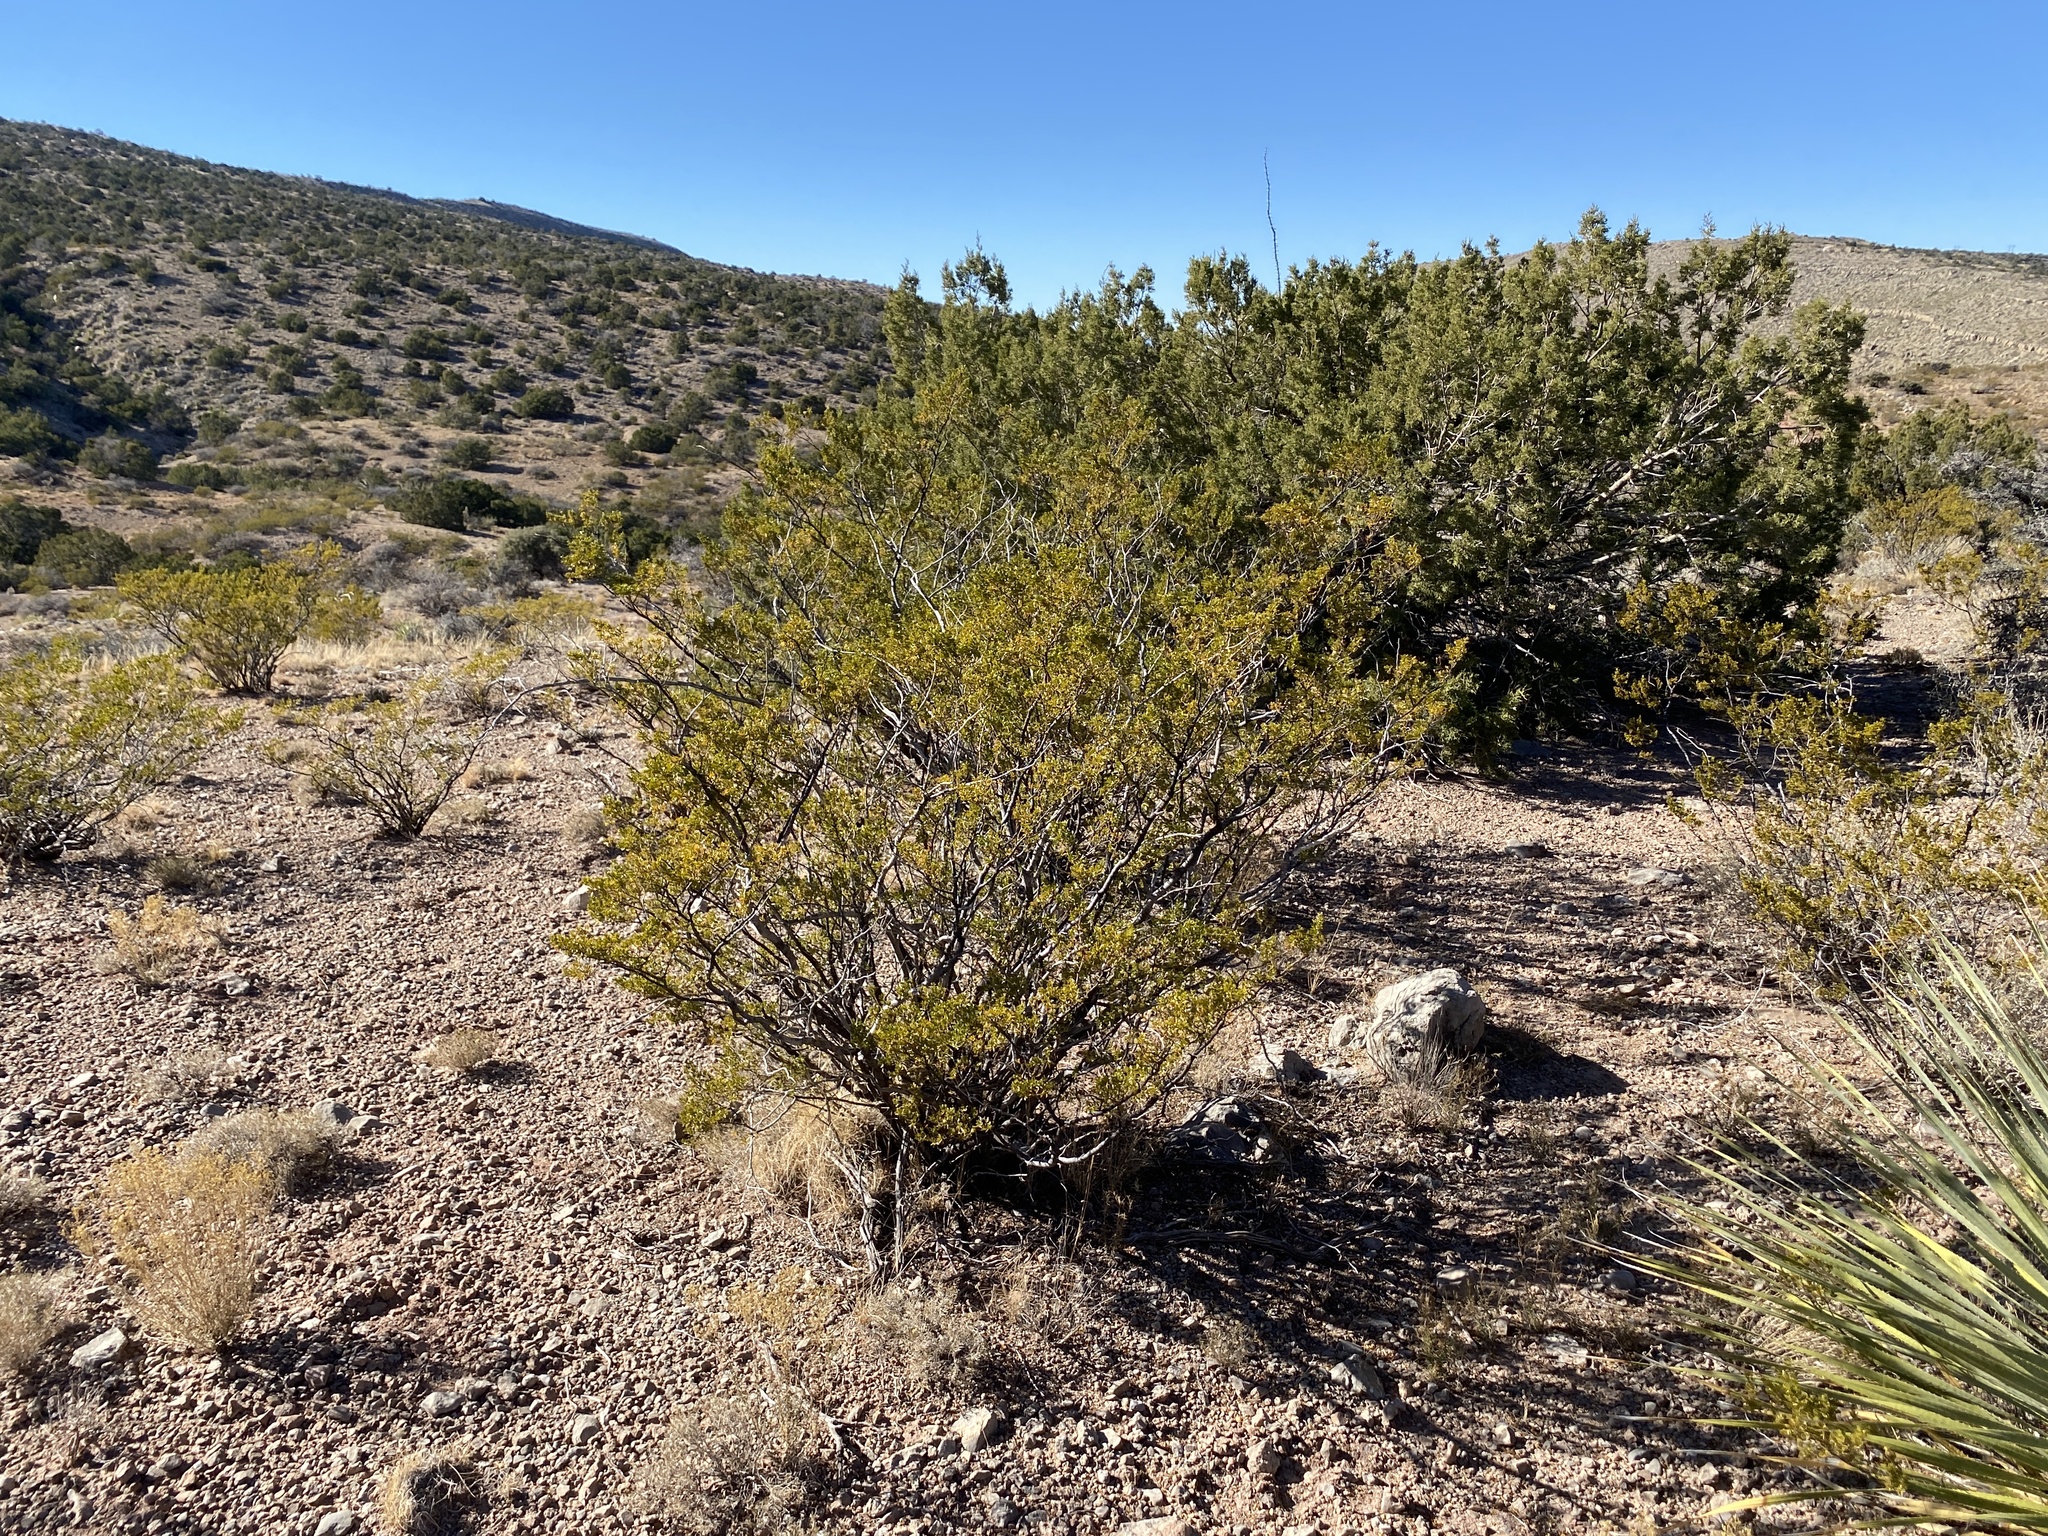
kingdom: Plantae
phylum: Tracheophyta
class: Magnoliopsida
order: Zygophyllales
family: Zygophyllaceae
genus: Larrea
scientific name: Larrea tridentata
